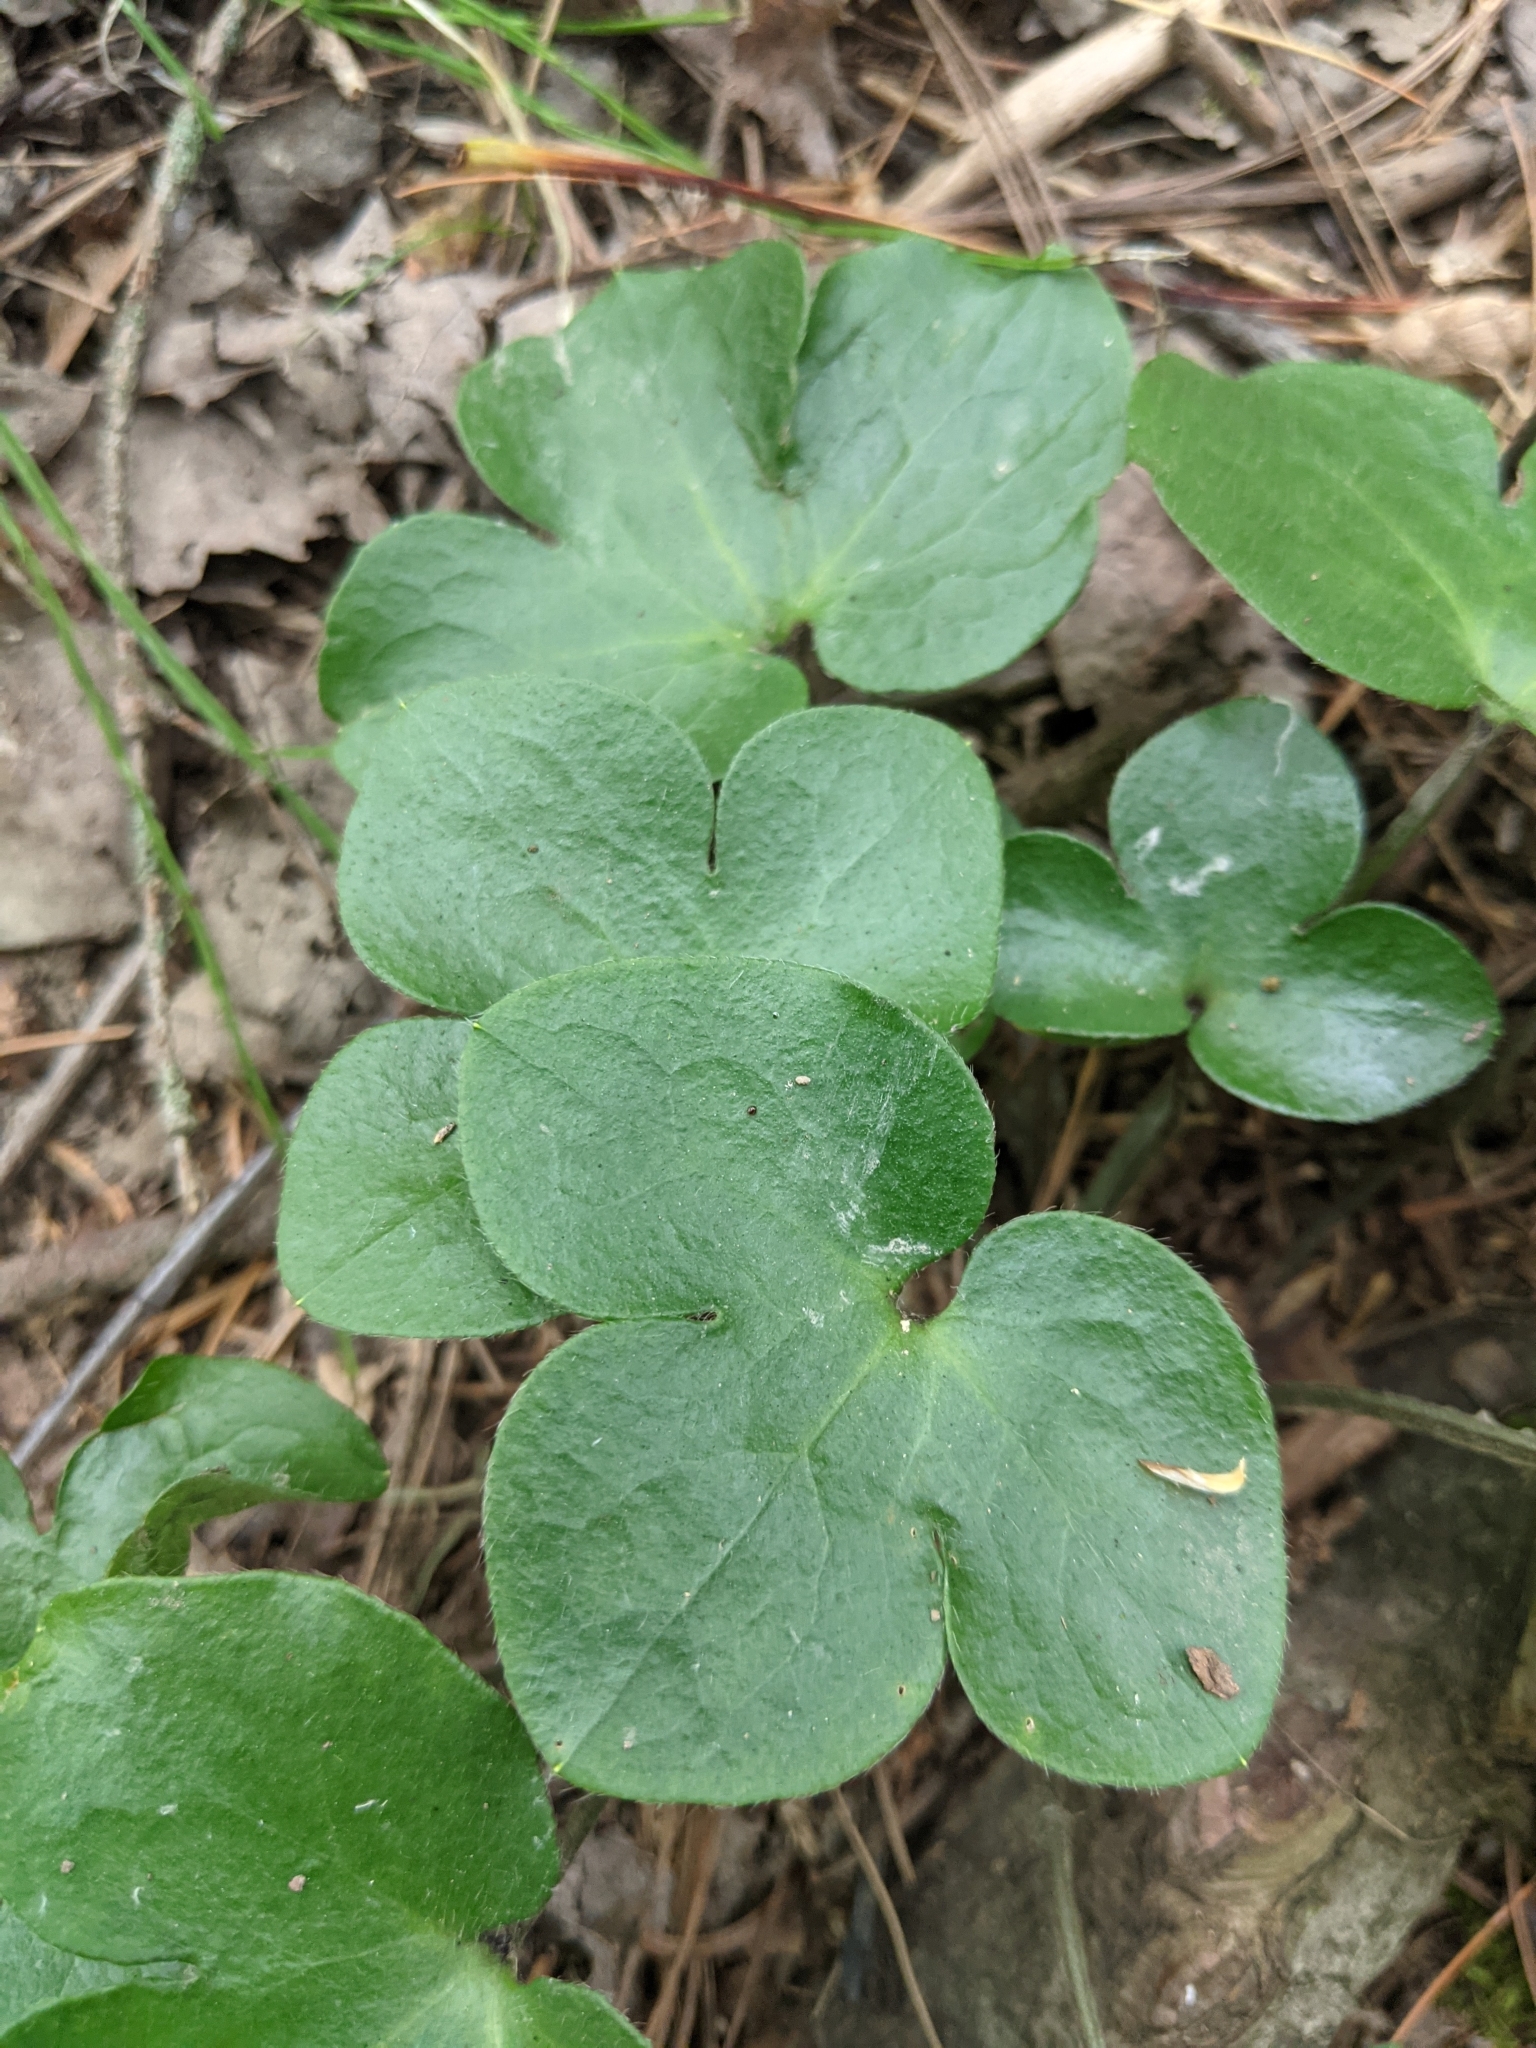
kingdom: Plantae
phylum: Tracheophyta
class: Magnoliopsida
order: Ranunculales
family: Ranunculaceae
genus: Hepatica
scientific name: Hepatica americana
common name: American hepatica
